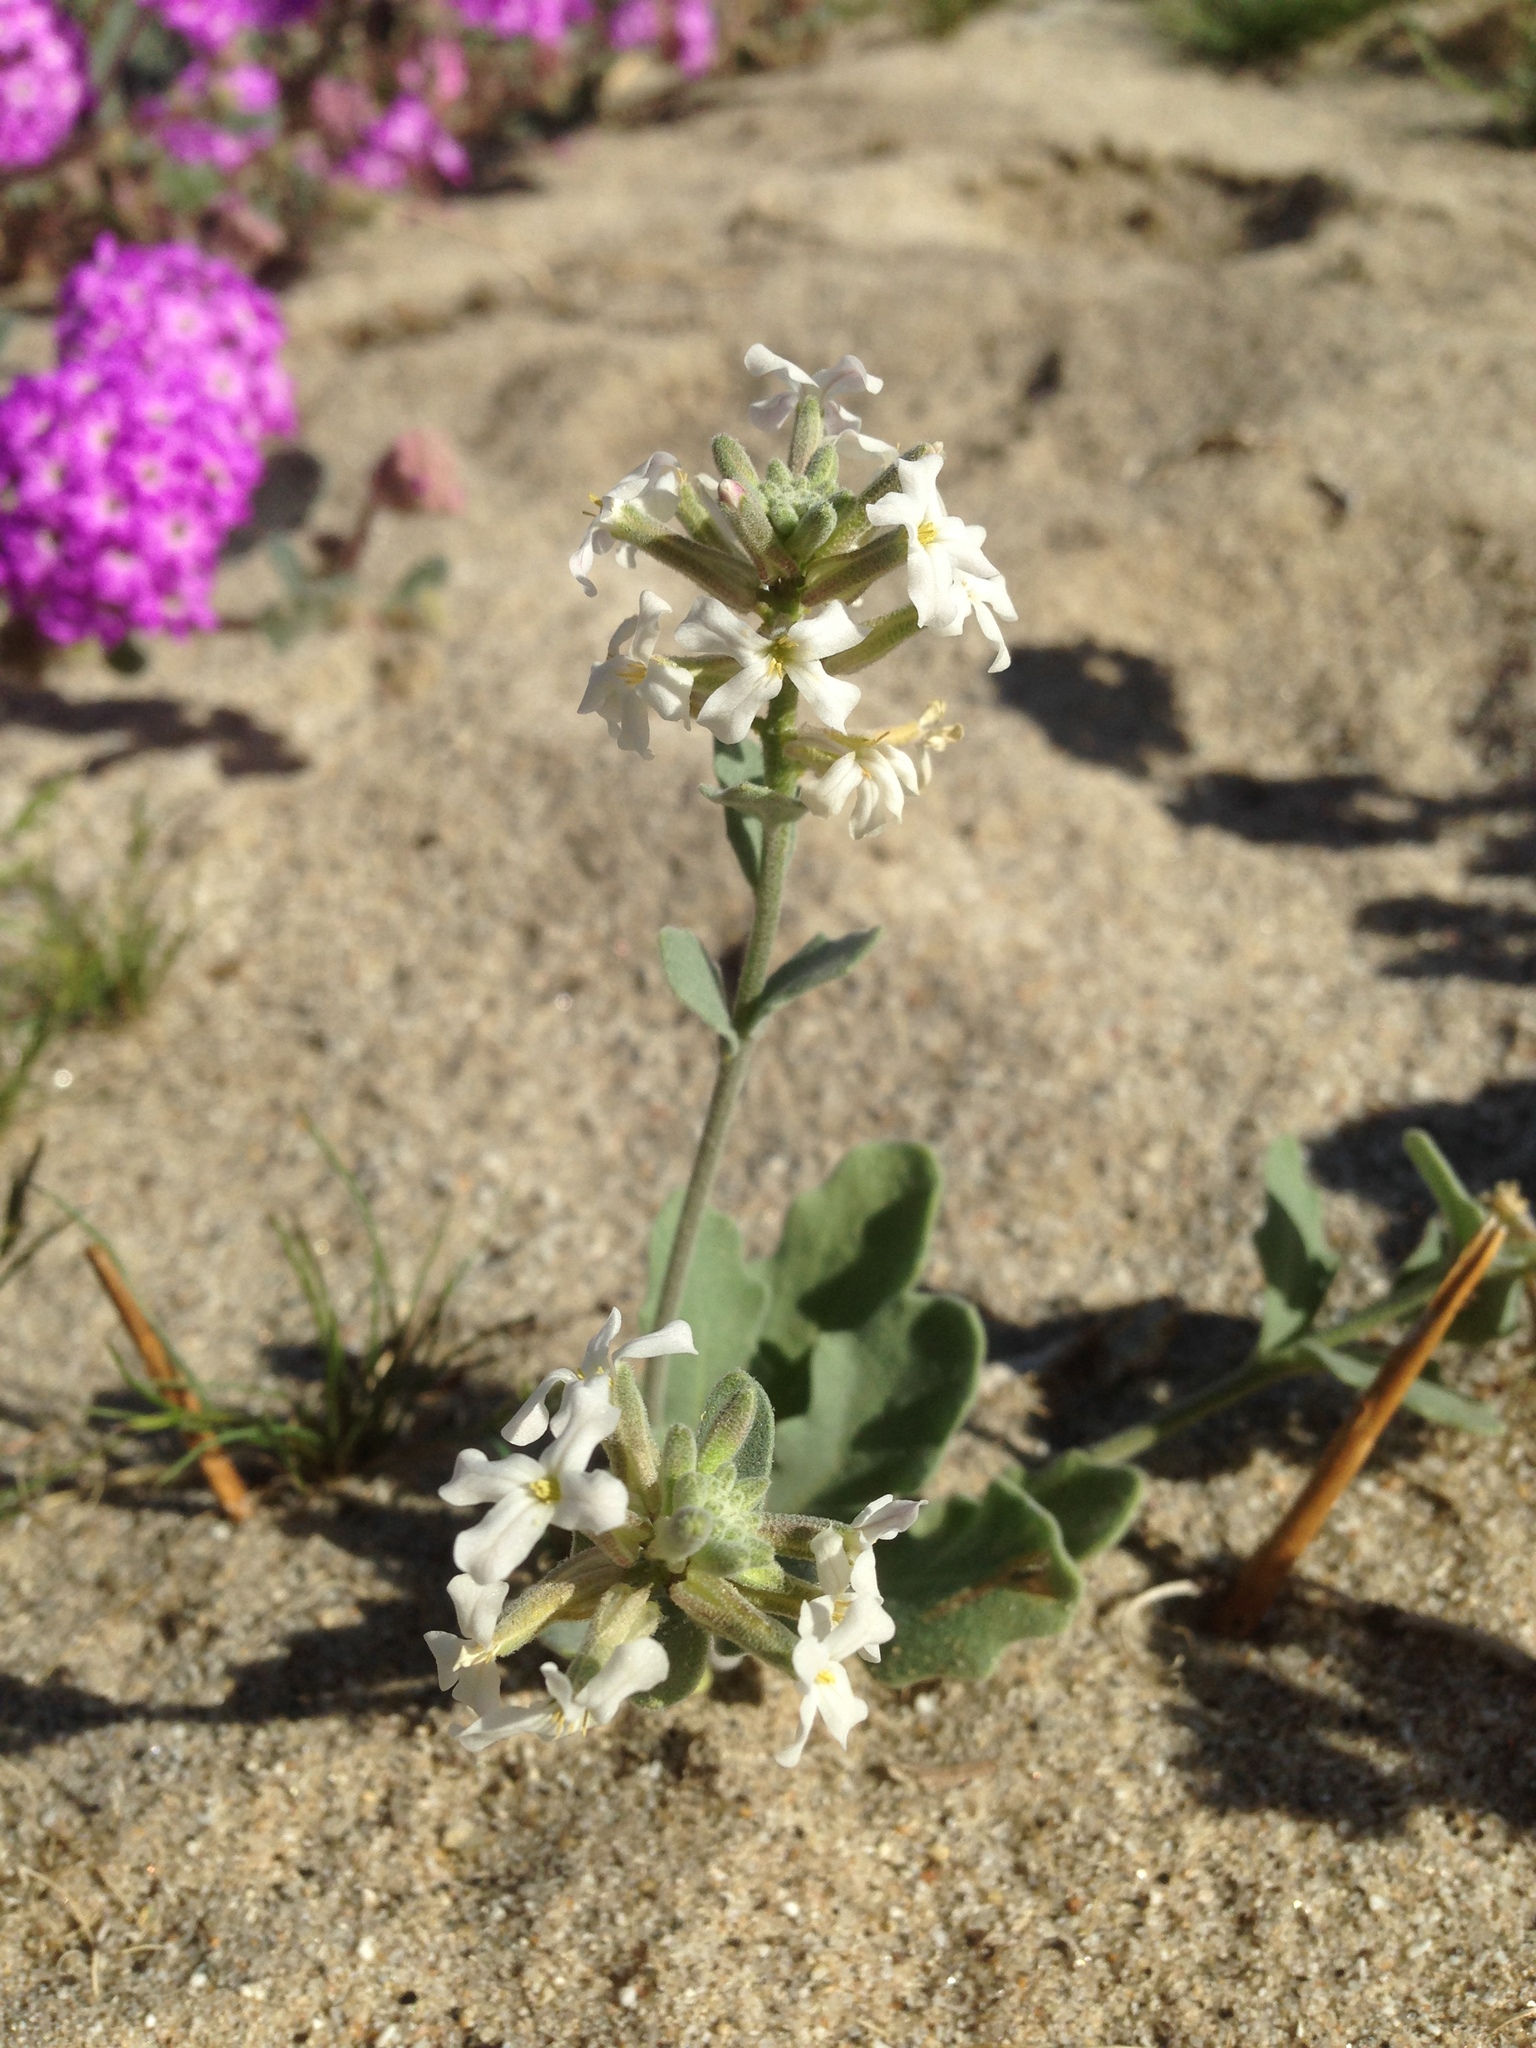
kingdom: Plantae
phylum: Tracheophyta
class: Magnoliopsida
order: Brassicales
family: Brassicaceae
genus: Dithyrea
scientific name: Dithyrea californica
